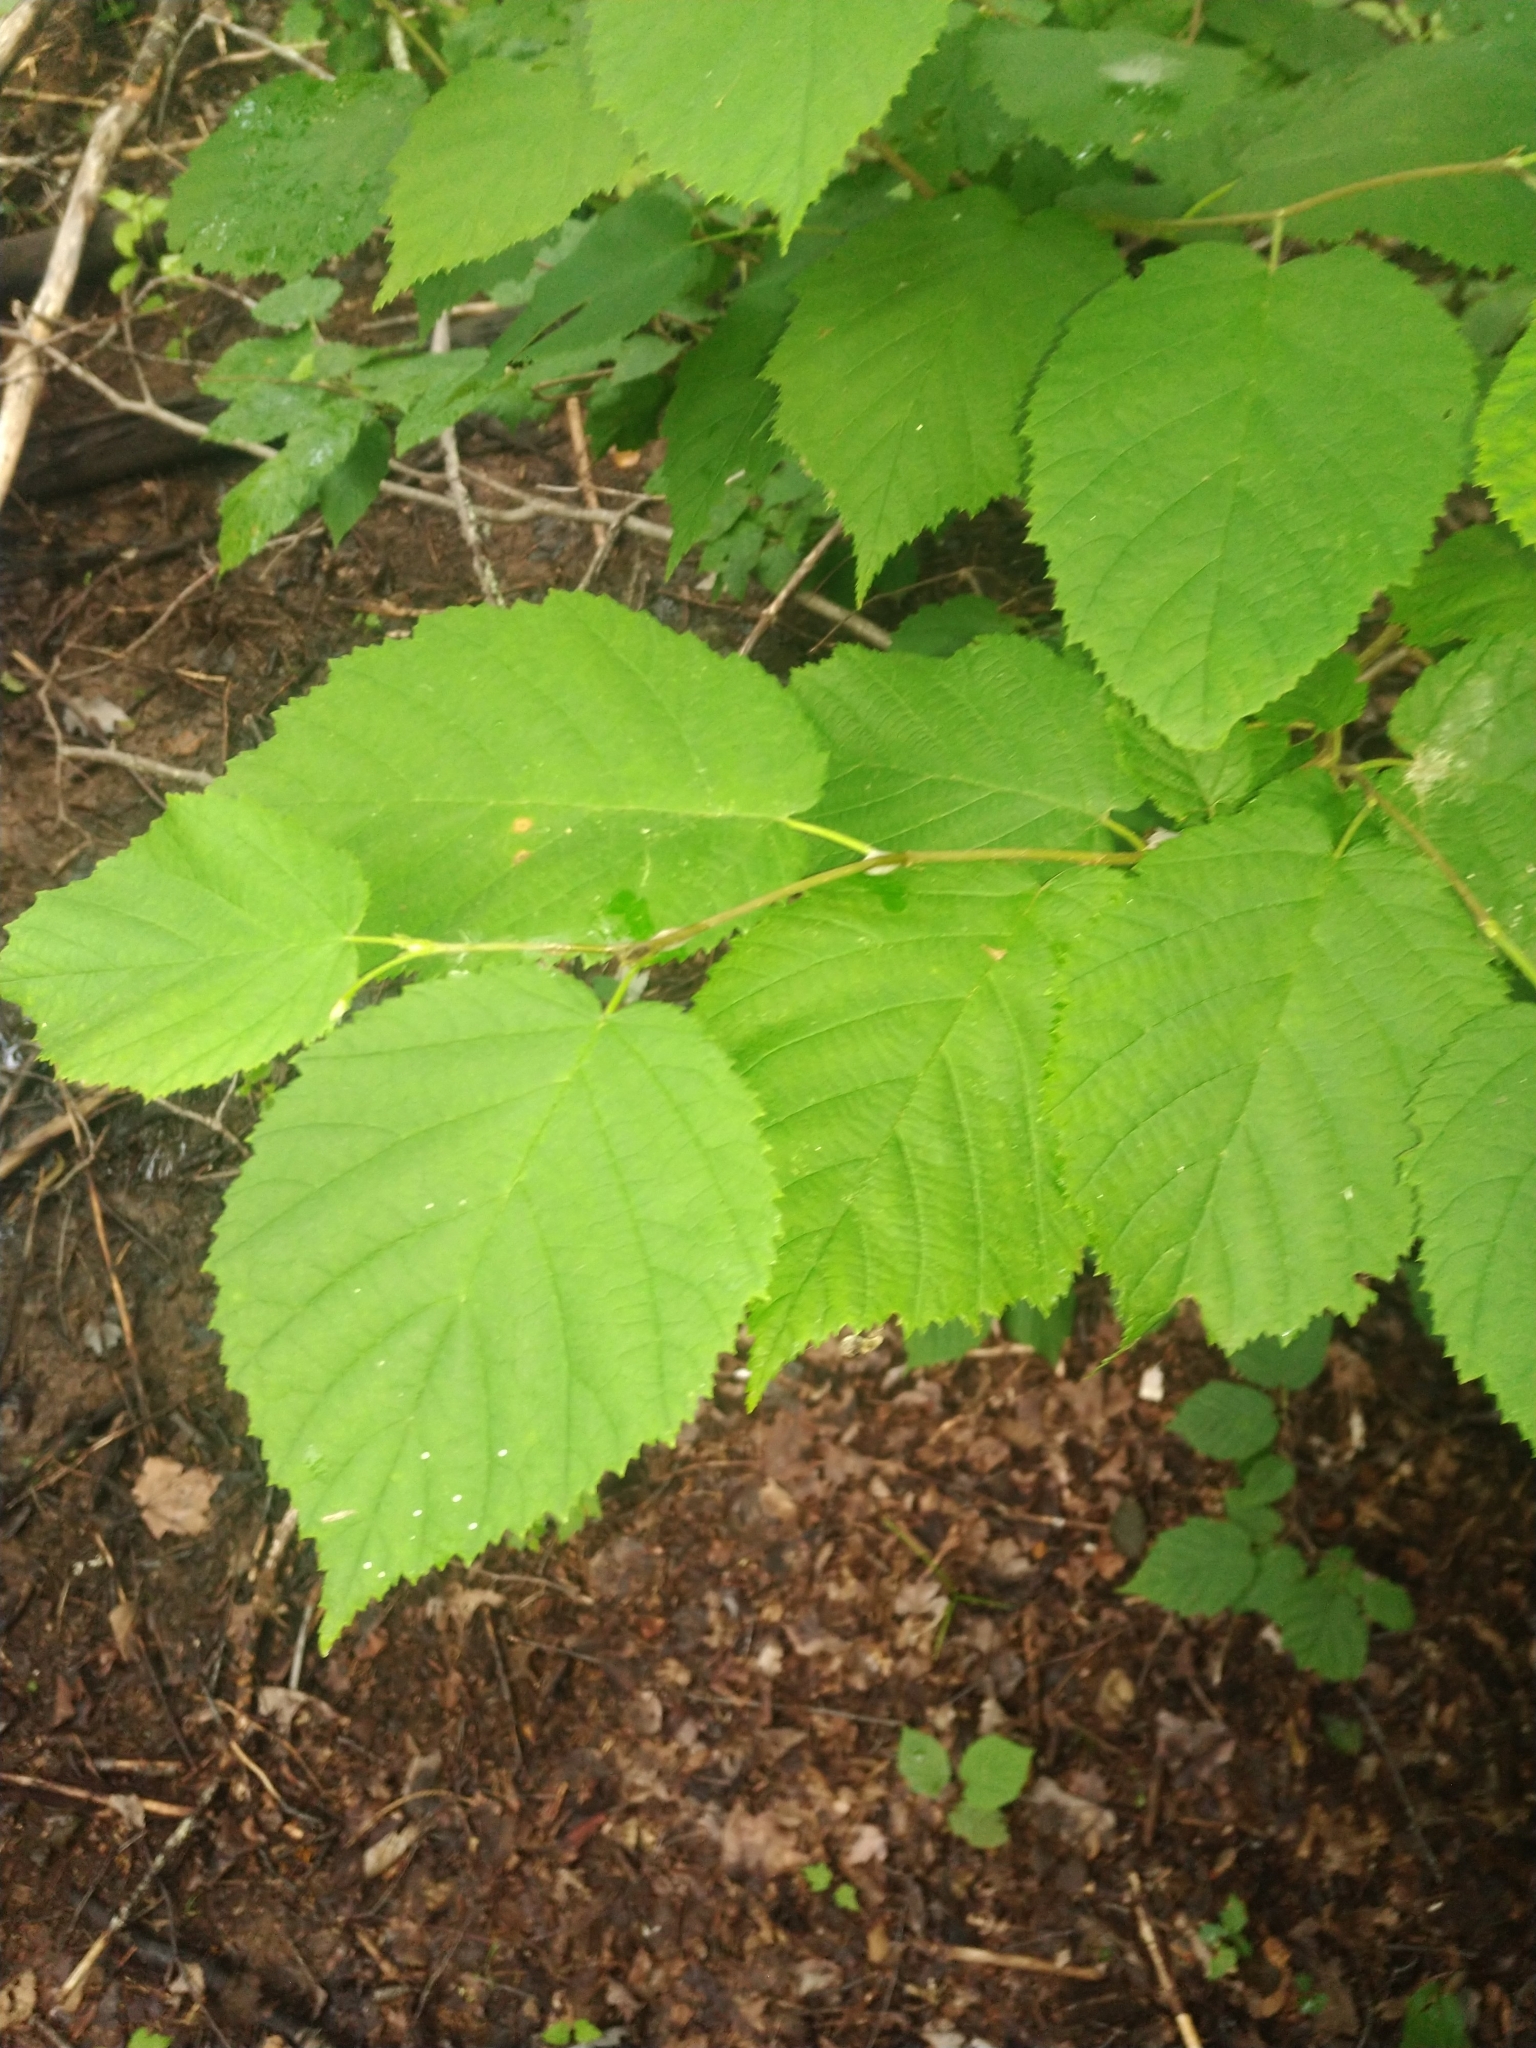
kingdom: Plantae
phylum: Tracheophyta
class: Magnoliopsida
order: Fagales
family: Betulaceae
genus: Corylus
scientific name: Corylus cornuta
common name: Beaked hazel
